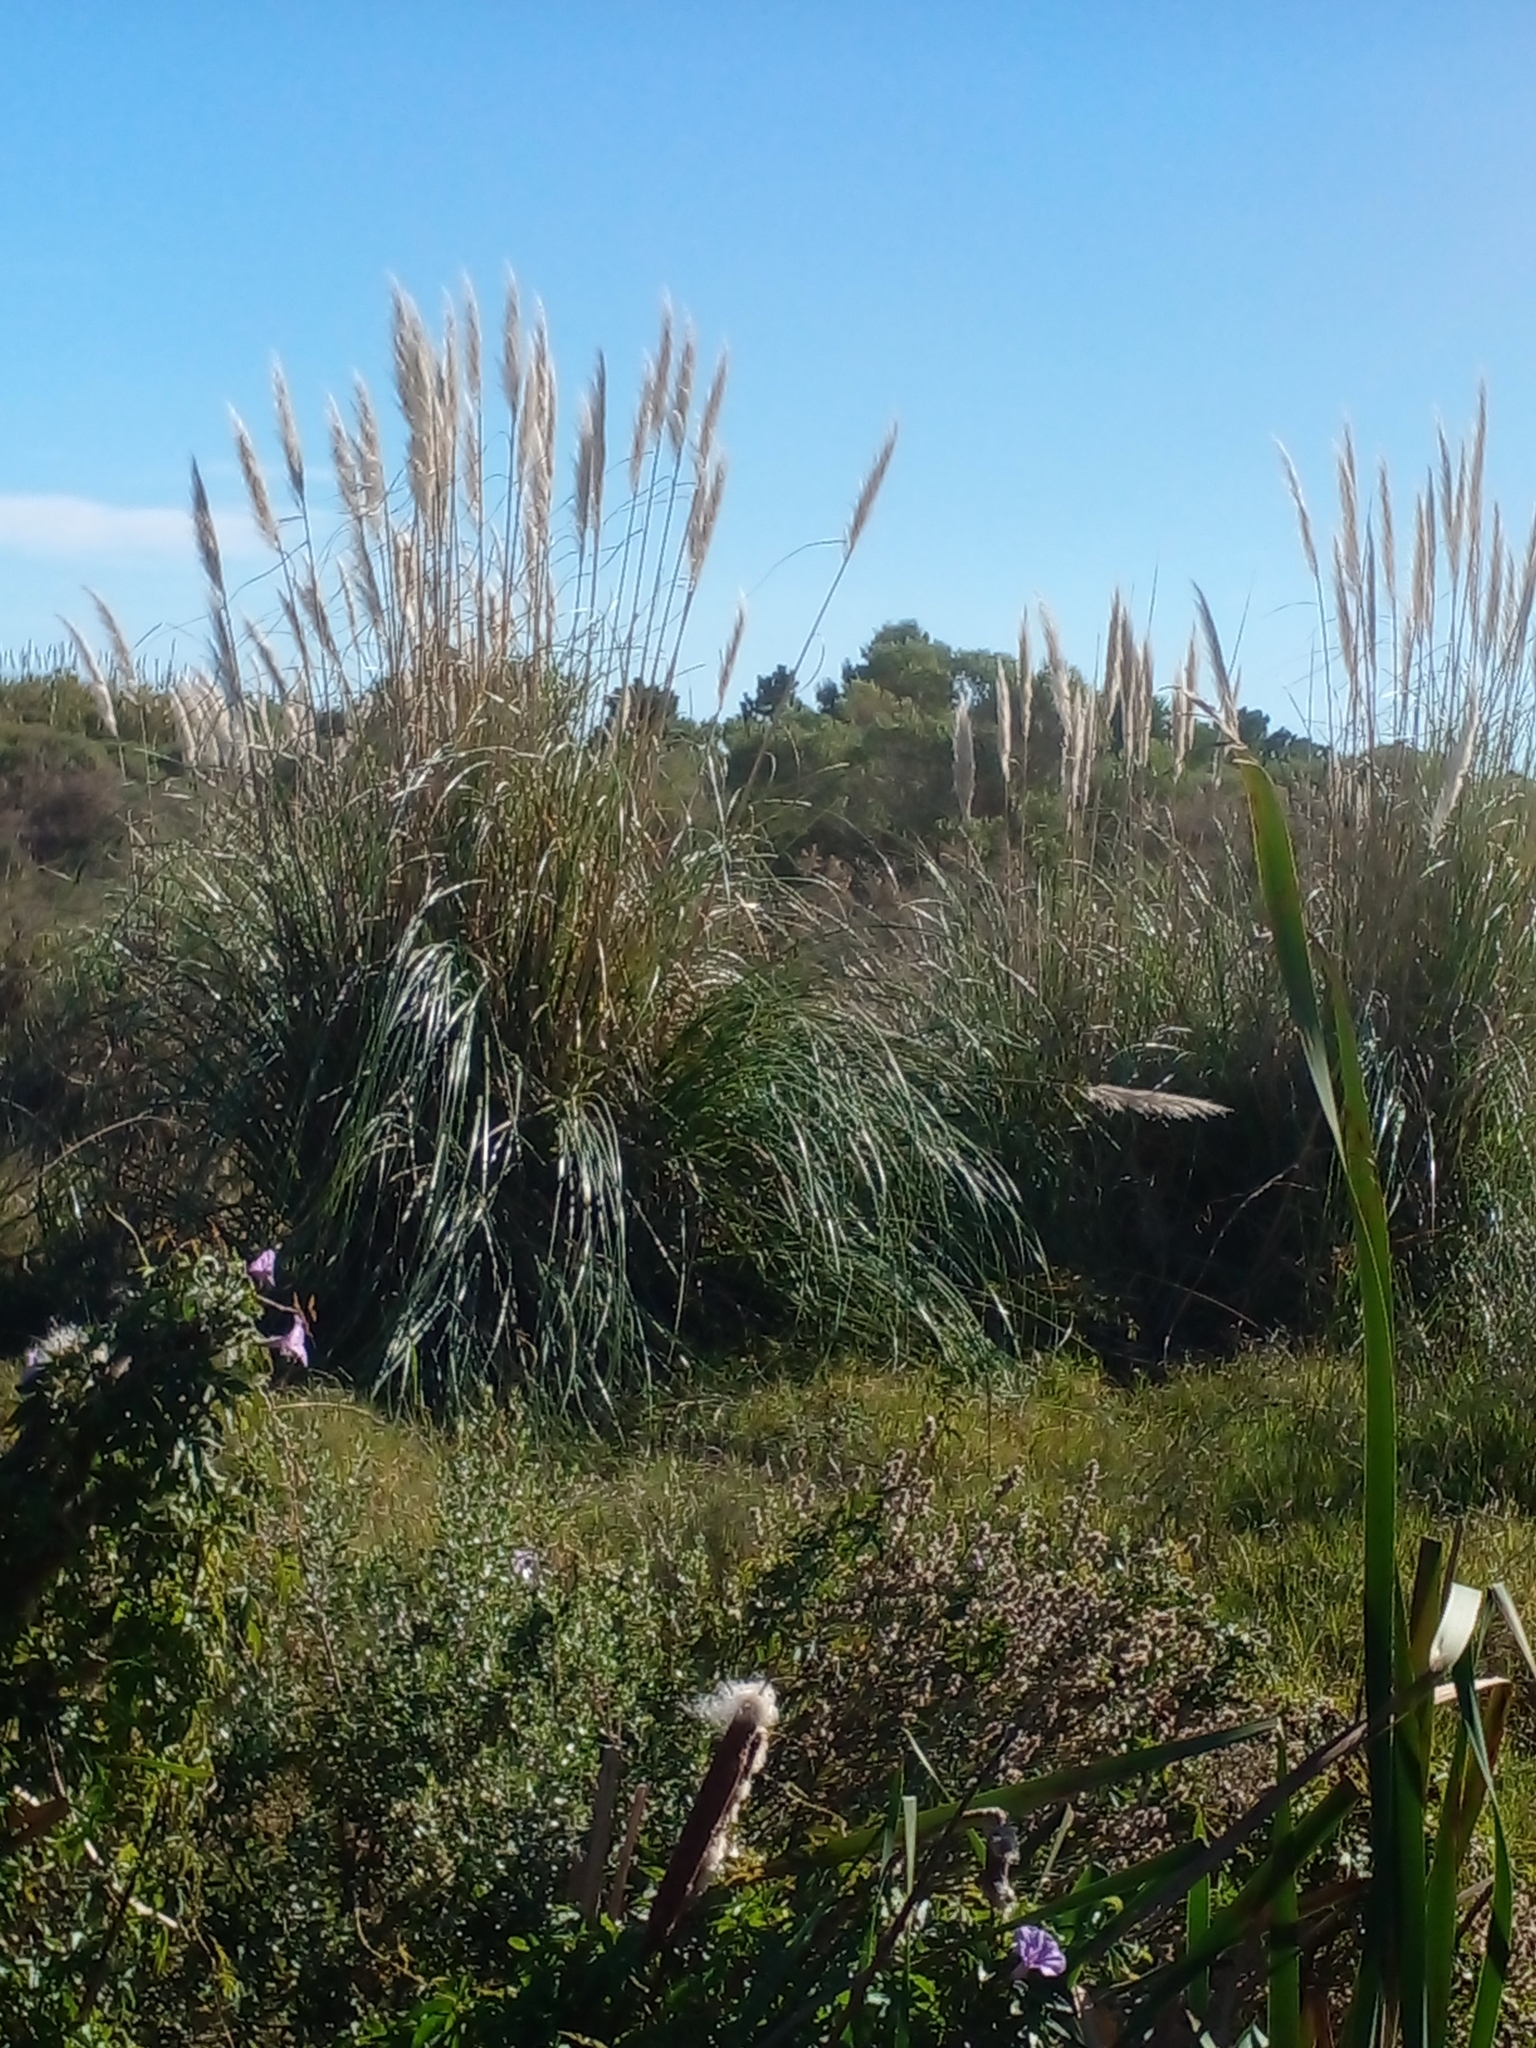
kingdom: Plantae
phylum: Tracheophyta
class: Liliopsida
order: Poales
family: Poaceae
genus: Cortaderia
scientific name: Cortaderia selloana
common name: Uruguayan pampas grass
